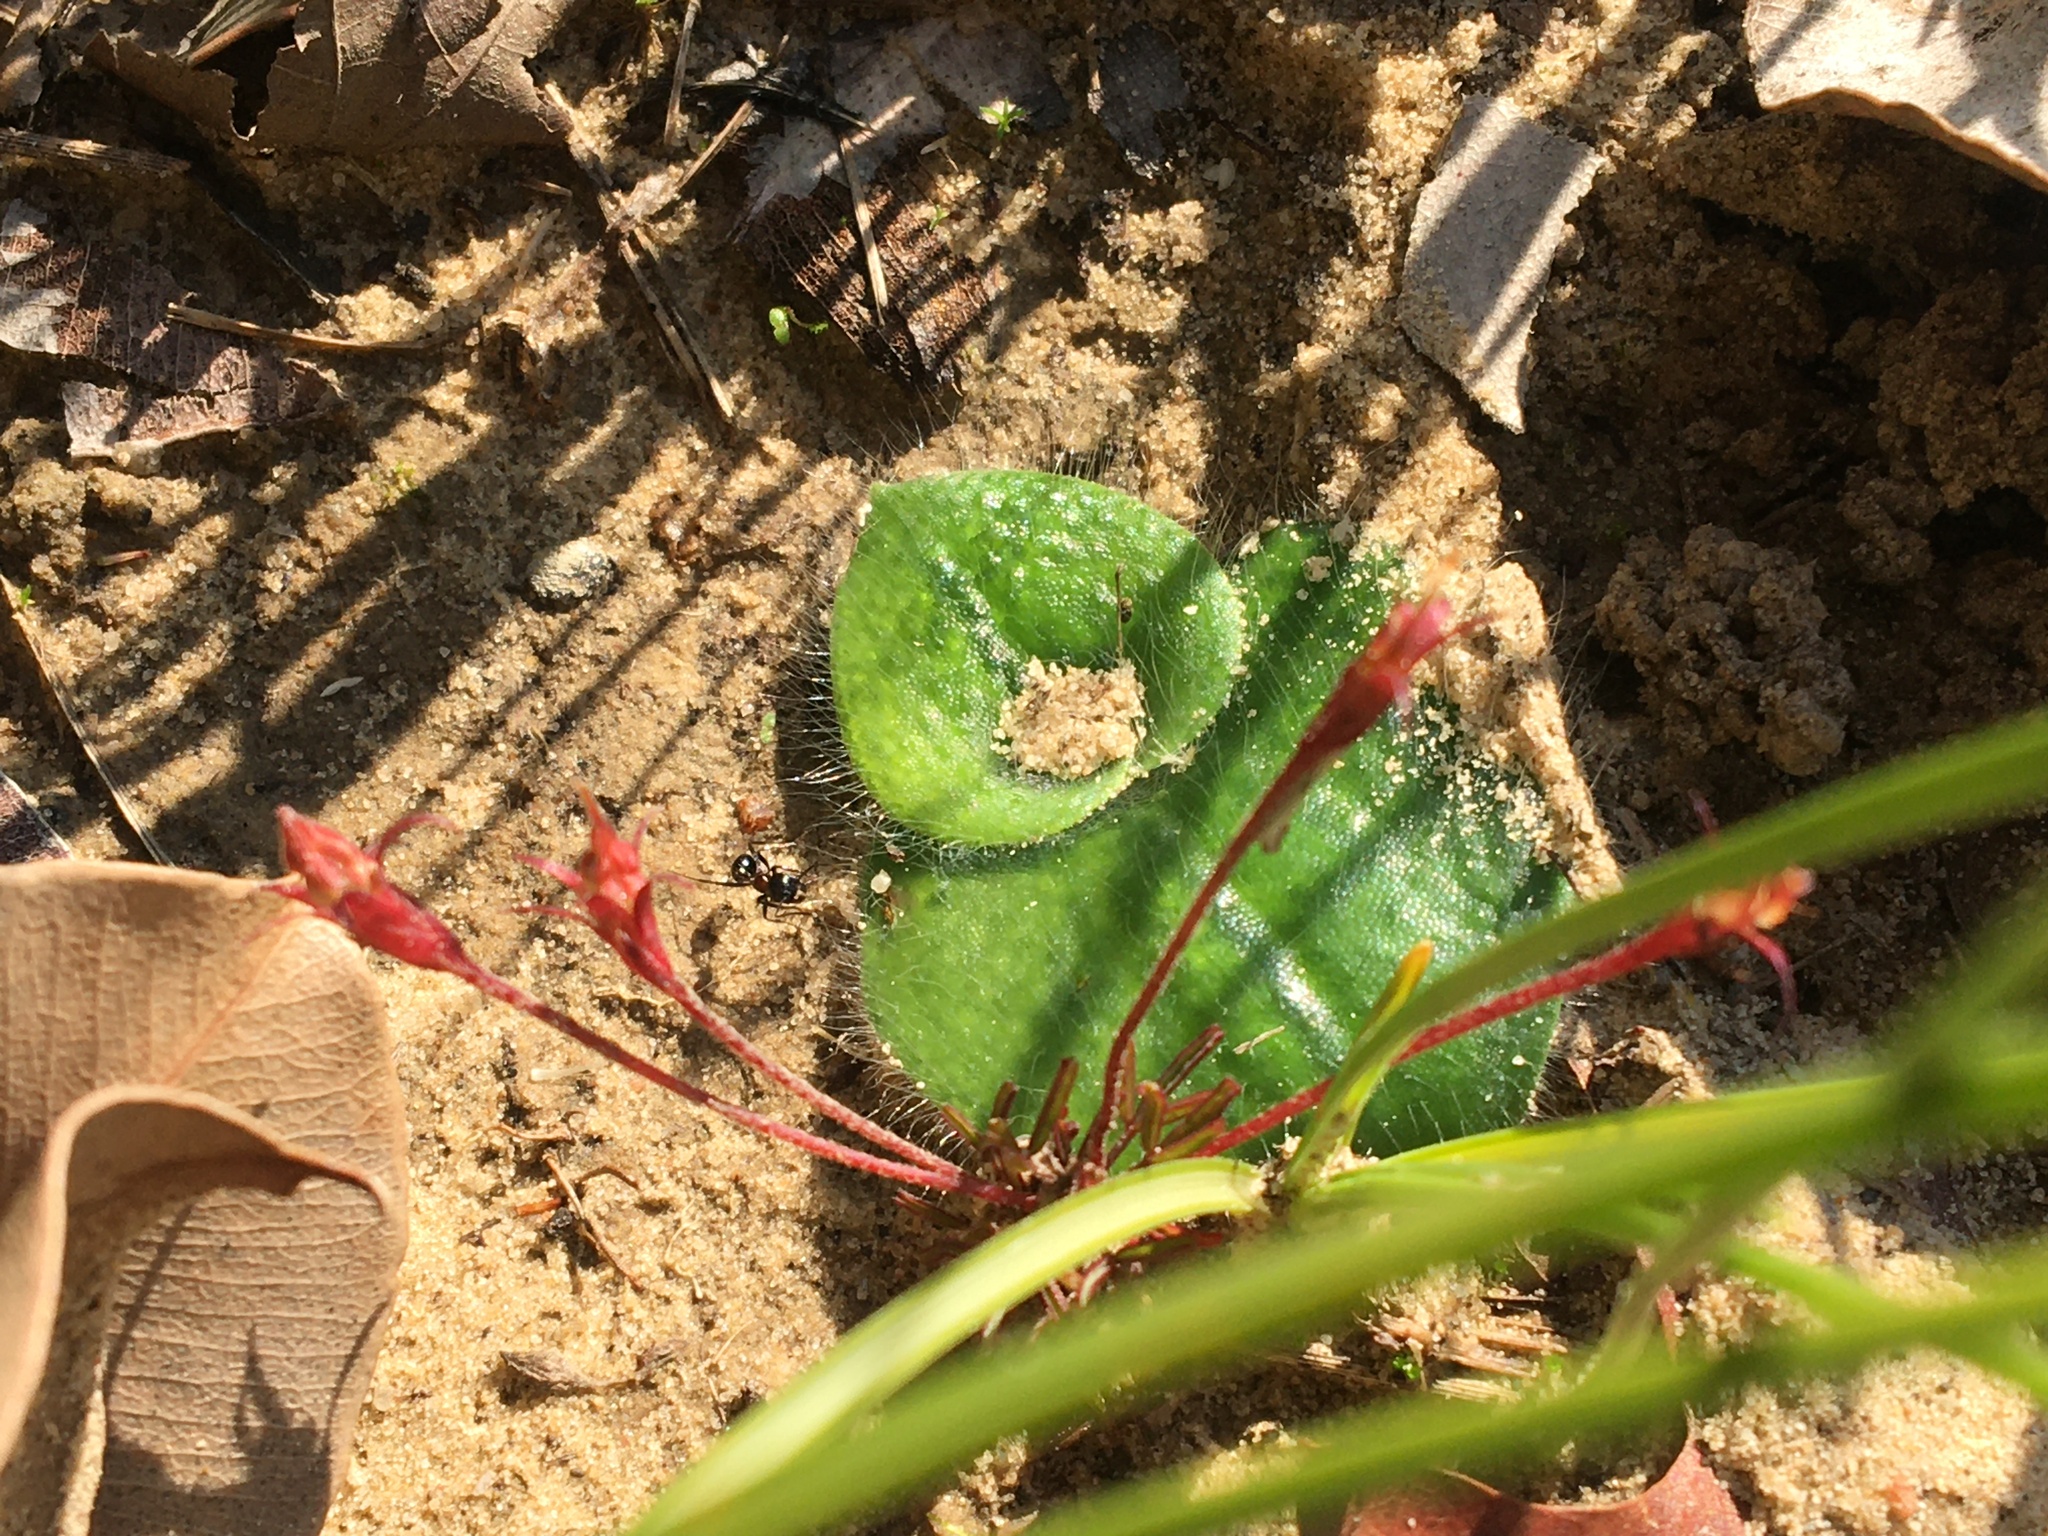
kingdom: Plantae
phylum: Tracheophyta
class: Liliopsida
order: Asparagales
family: Orchidaceae
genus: Holothrix
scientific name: Holothrix villosa
